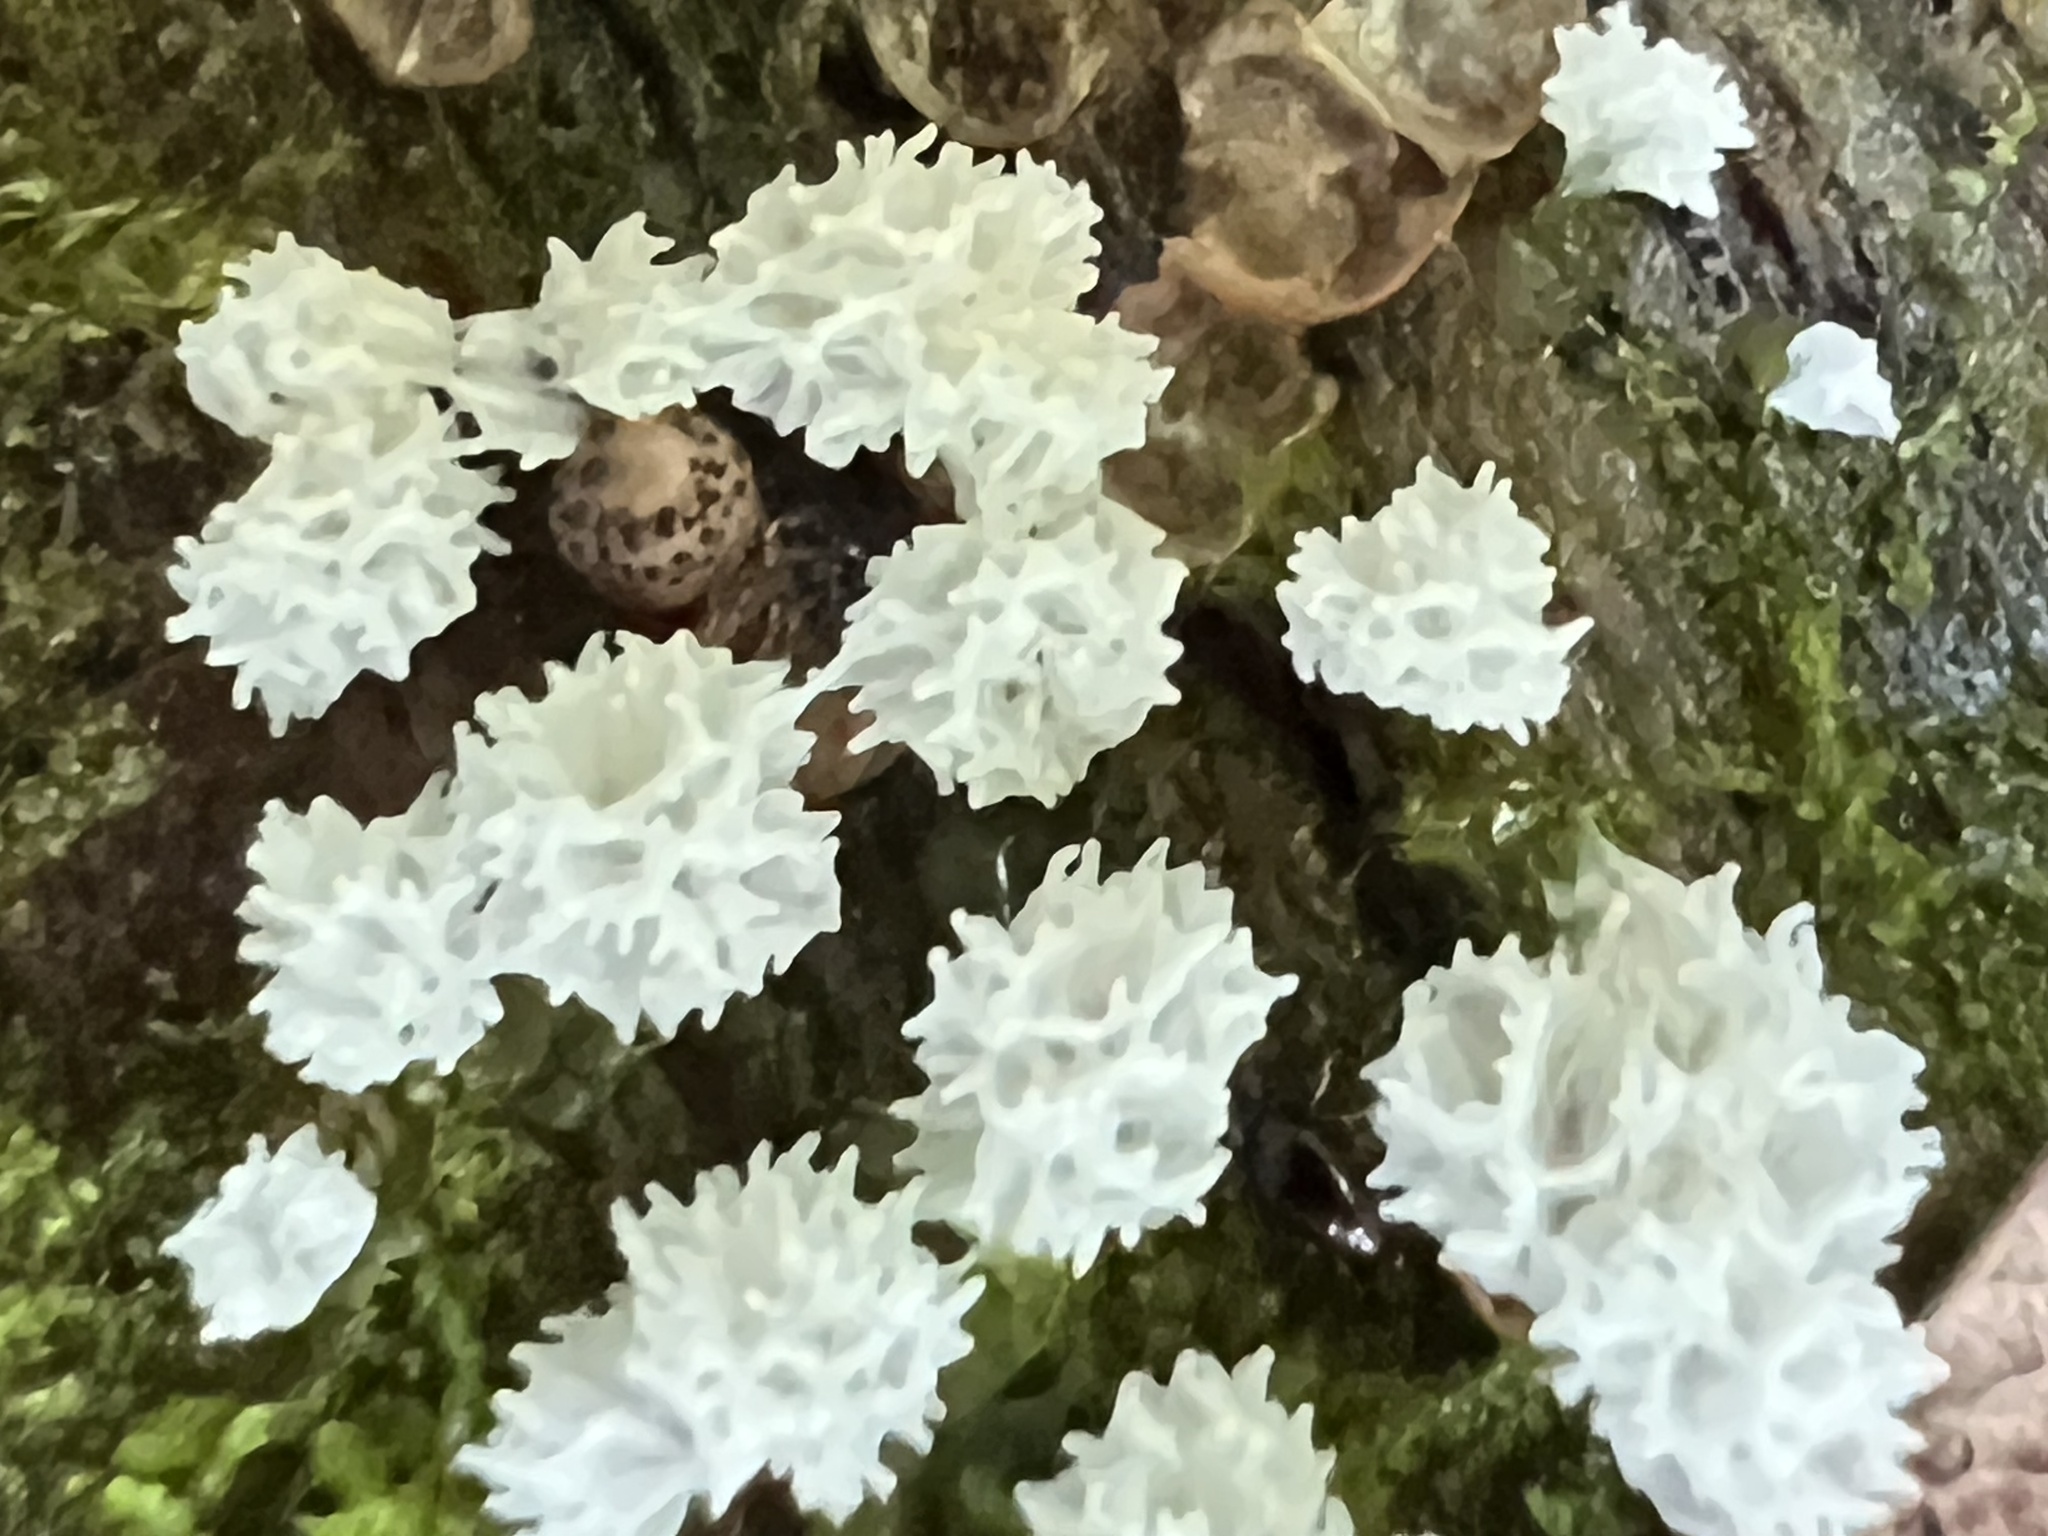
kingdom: Protozoa
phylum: Mycetozoa
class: Protosteliomycetes
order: Ceratiomyxales
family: Ceratiomyxaceae
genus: Ceratiomyxa
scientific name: Ceratiomyxa fruticulosa
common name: Honeycomb coral slime mold
